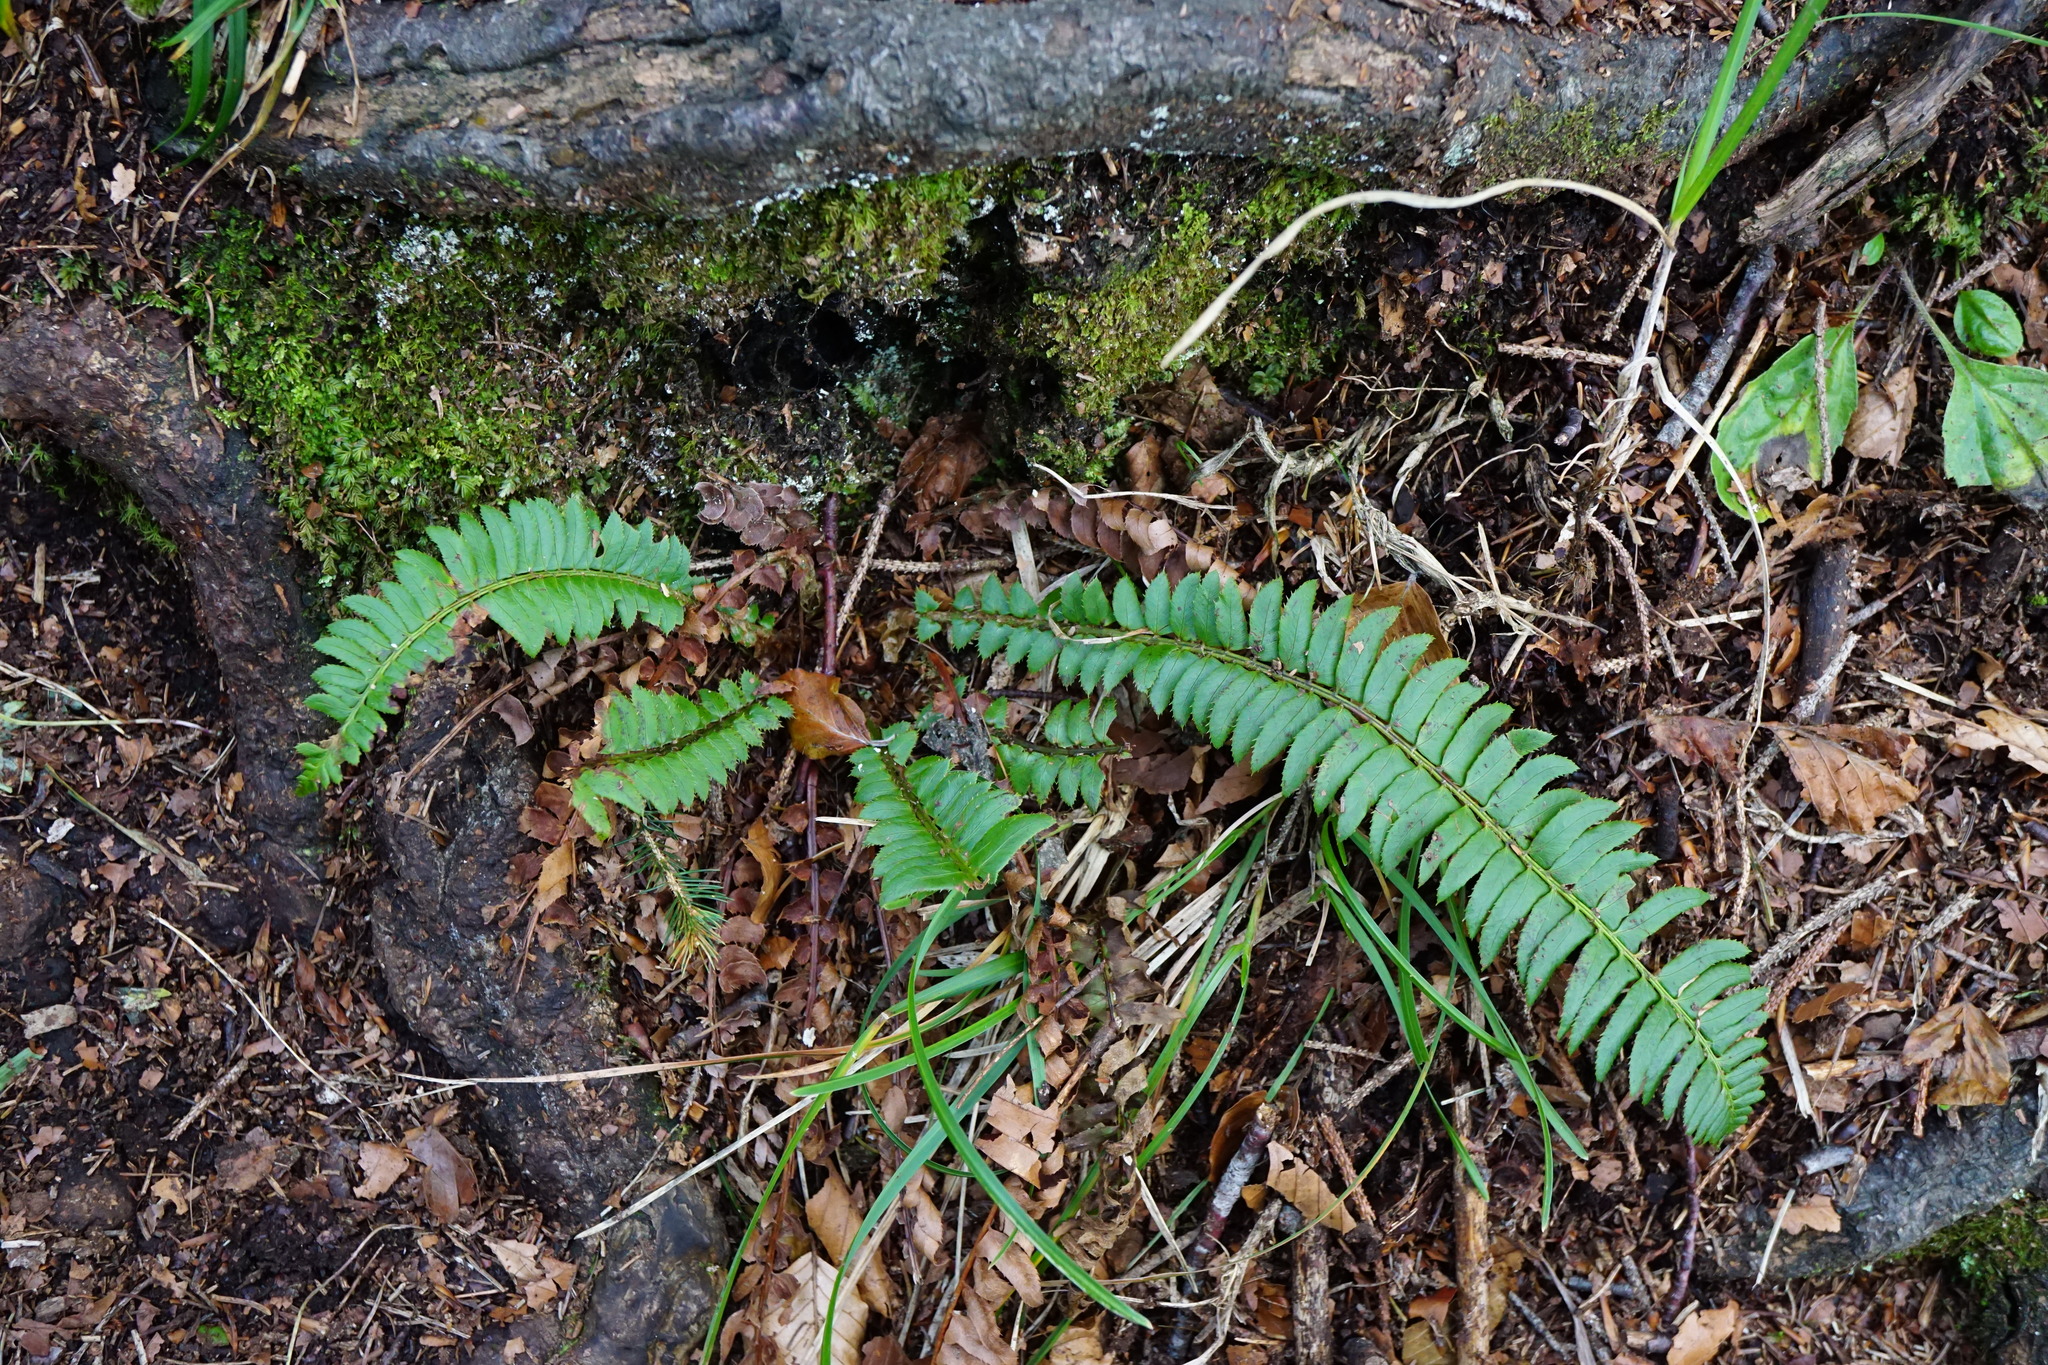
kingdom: Plantae
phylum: Tracheophyta
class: Polypodiopsida
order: Polypodiales
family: Dryopteridaceae
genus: Polystichum
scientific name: Polystichum lonchitis
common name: Holly fern
